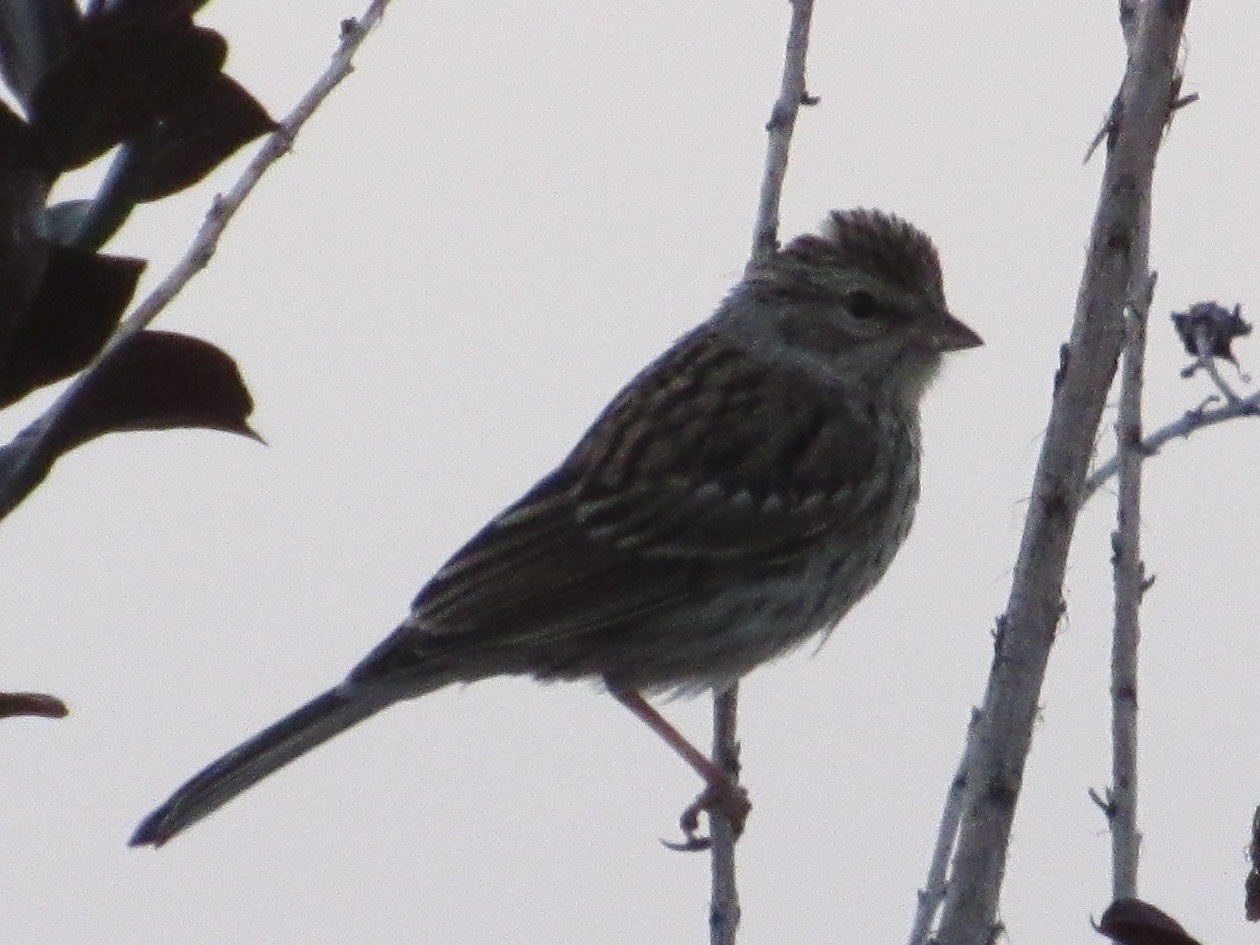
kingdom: Animalia
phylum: Chordata
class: Aves
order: Passeriformes
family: Passerellidae
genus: Spizella
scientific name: Spizella passerina
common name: Chipping sparrow
